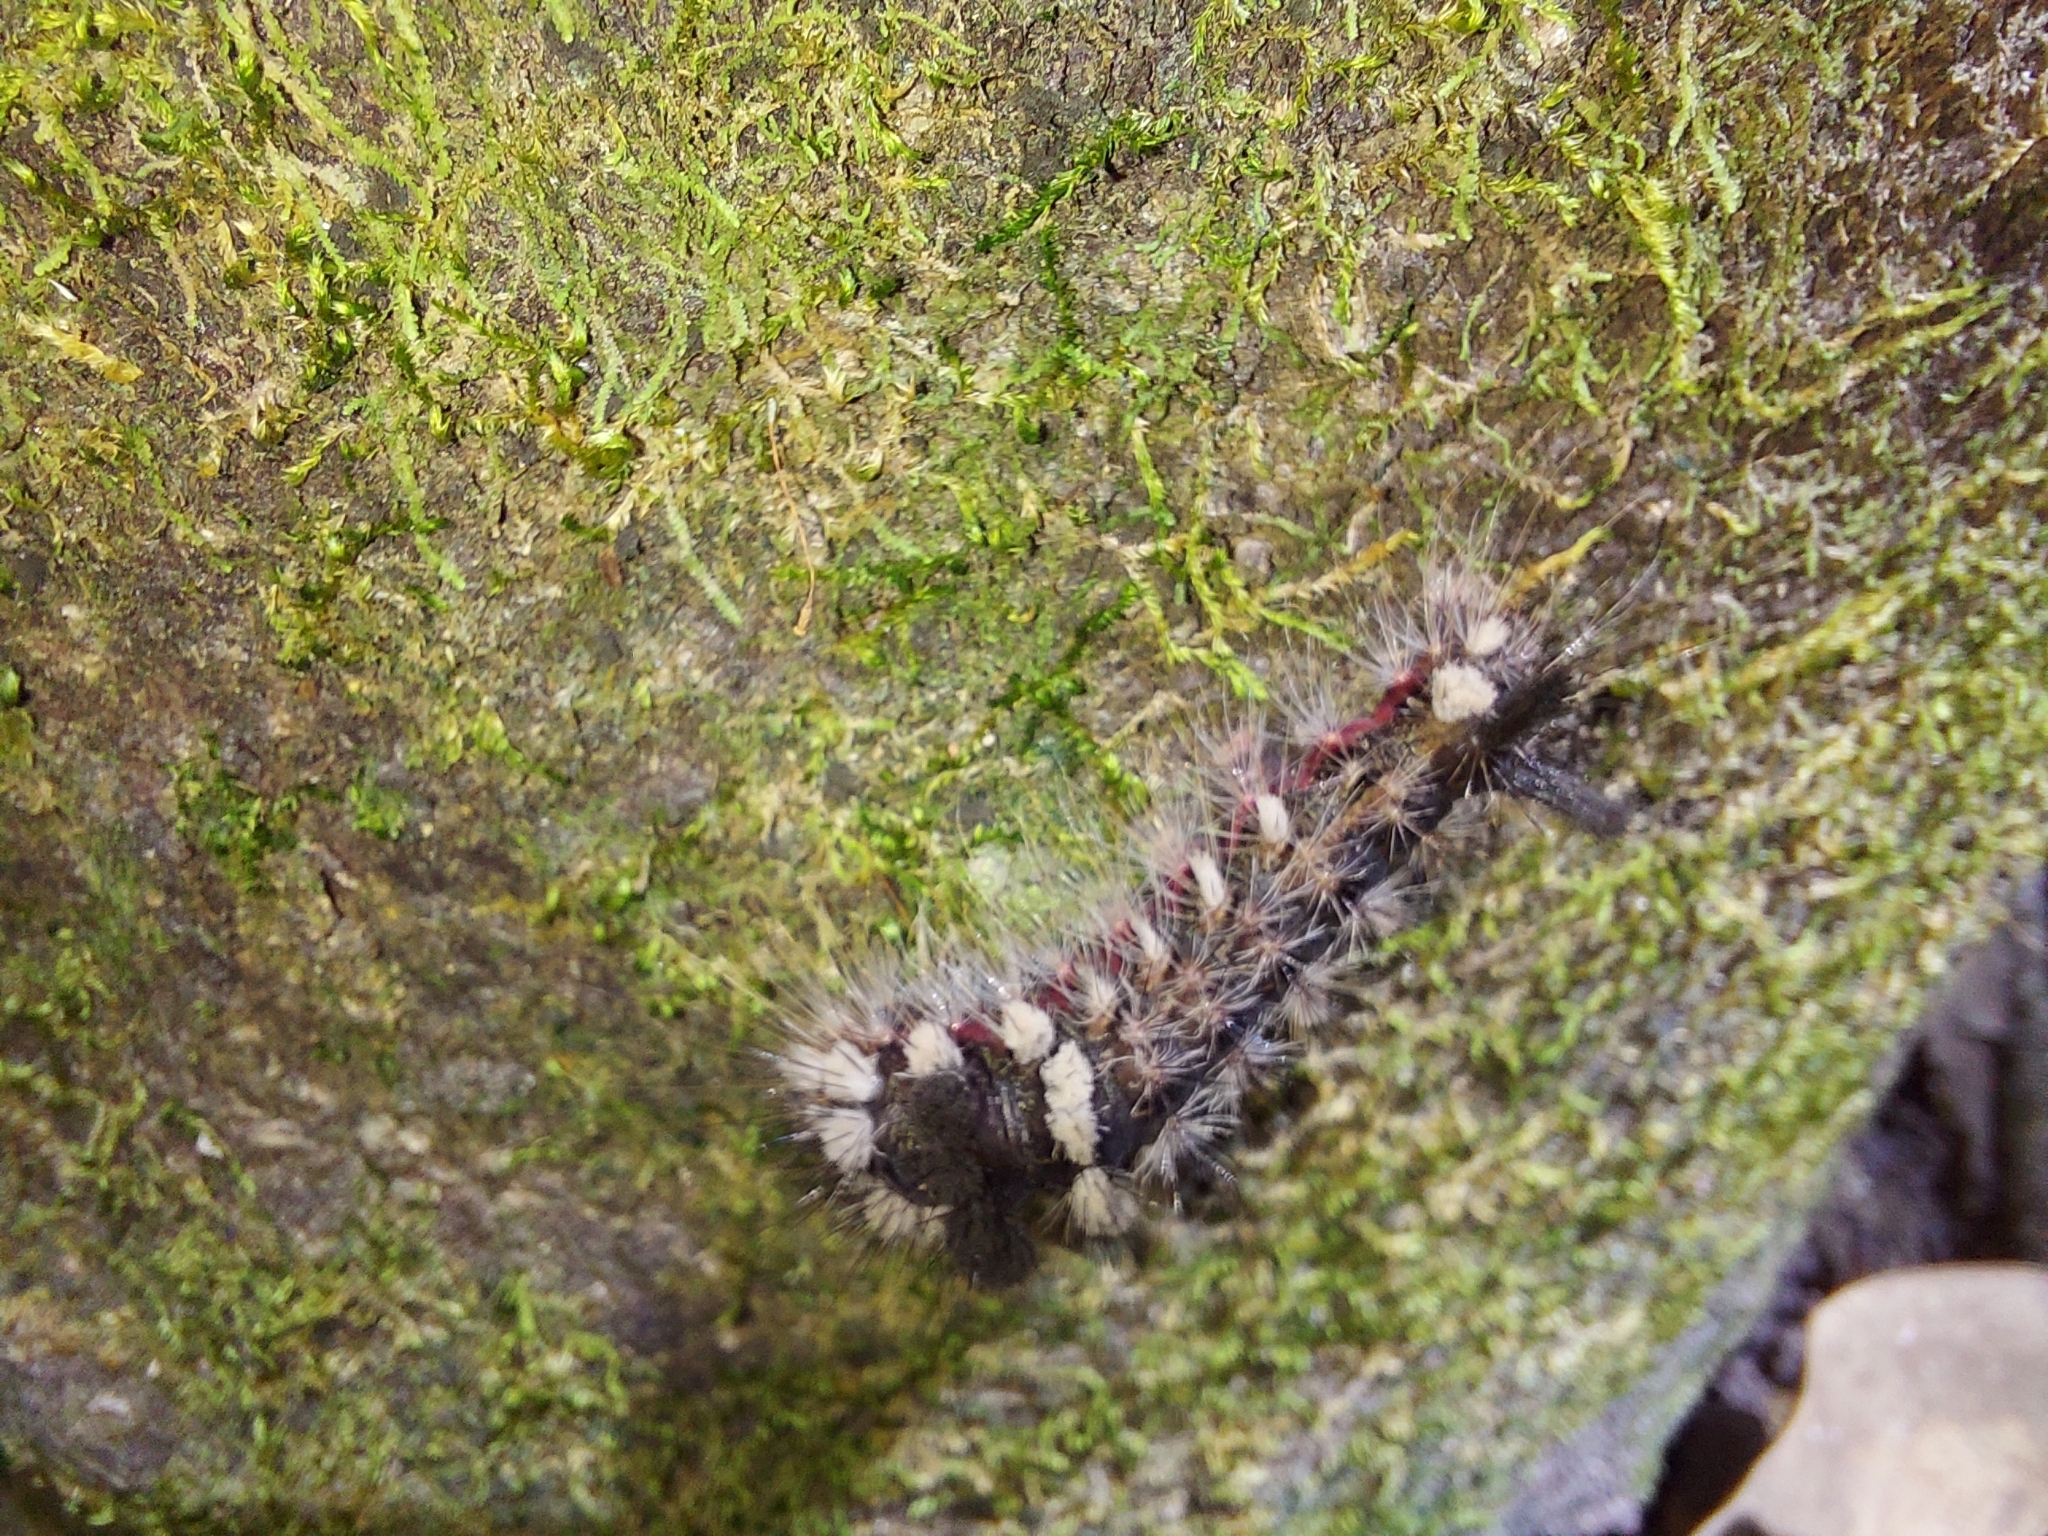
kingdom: Animalia
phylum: Arthropoda
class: Insecta
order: Lepidoptera
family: Noctuidae
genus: Acronicta
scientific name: Acronicta impleta
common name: Powdered dagger
